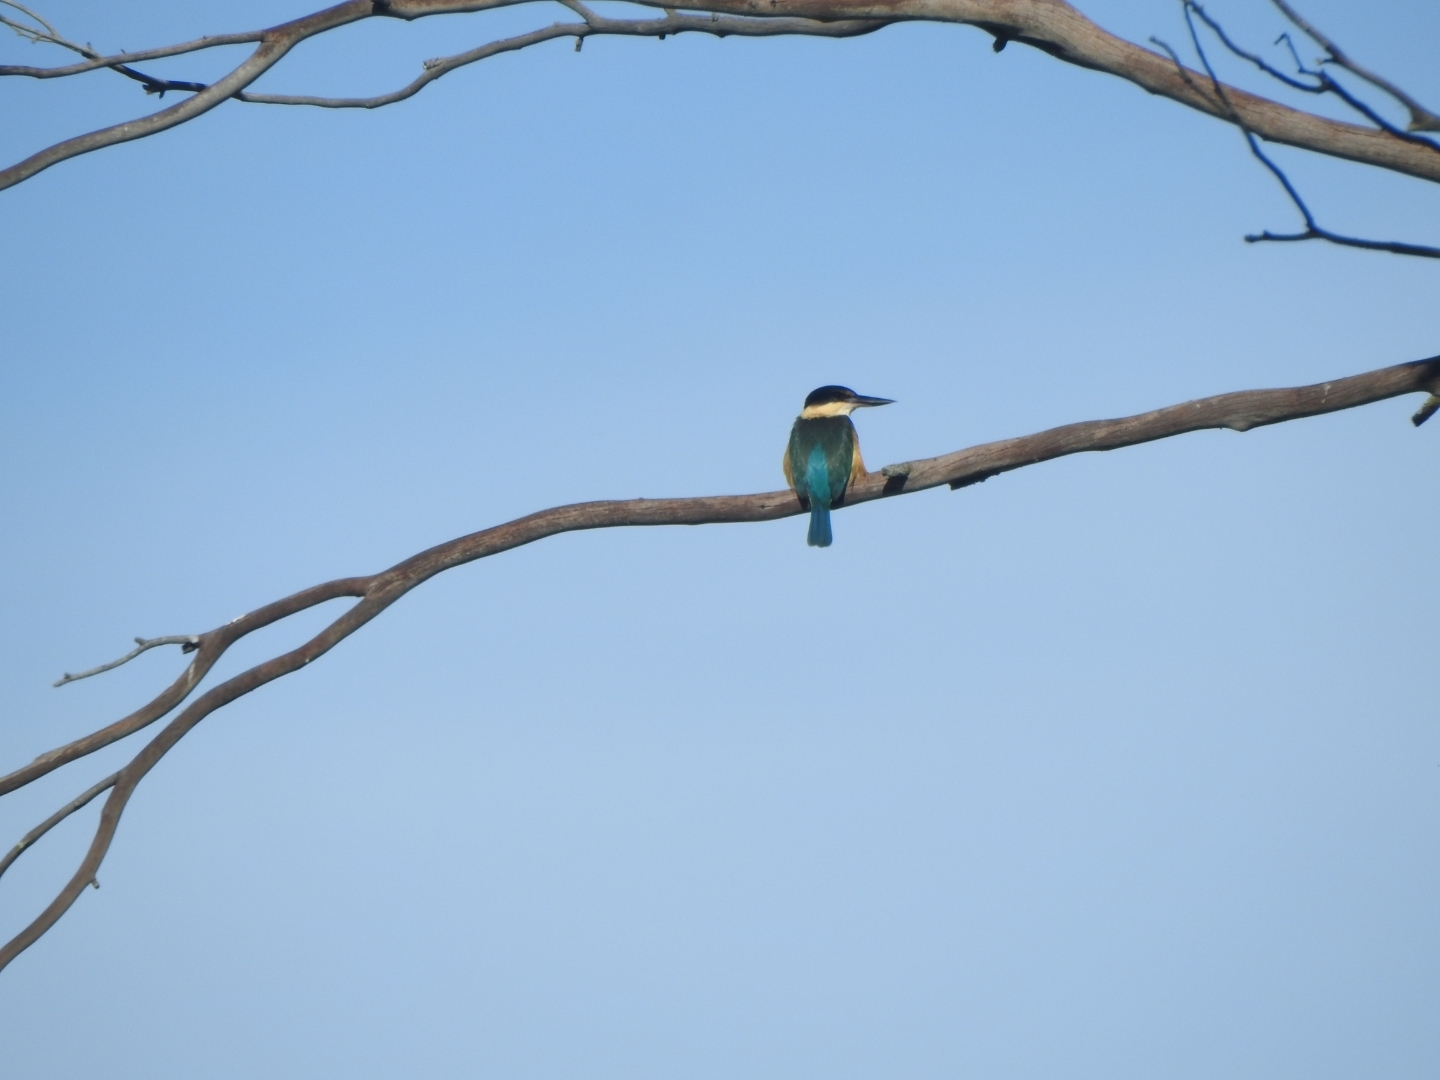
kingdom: Animalia
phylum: Chordata
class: Aves
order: Coraciiformes
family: Alcedinidae
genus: Todiramphus
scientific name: Todiramphus sanctus
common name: Sacred kingfisher
